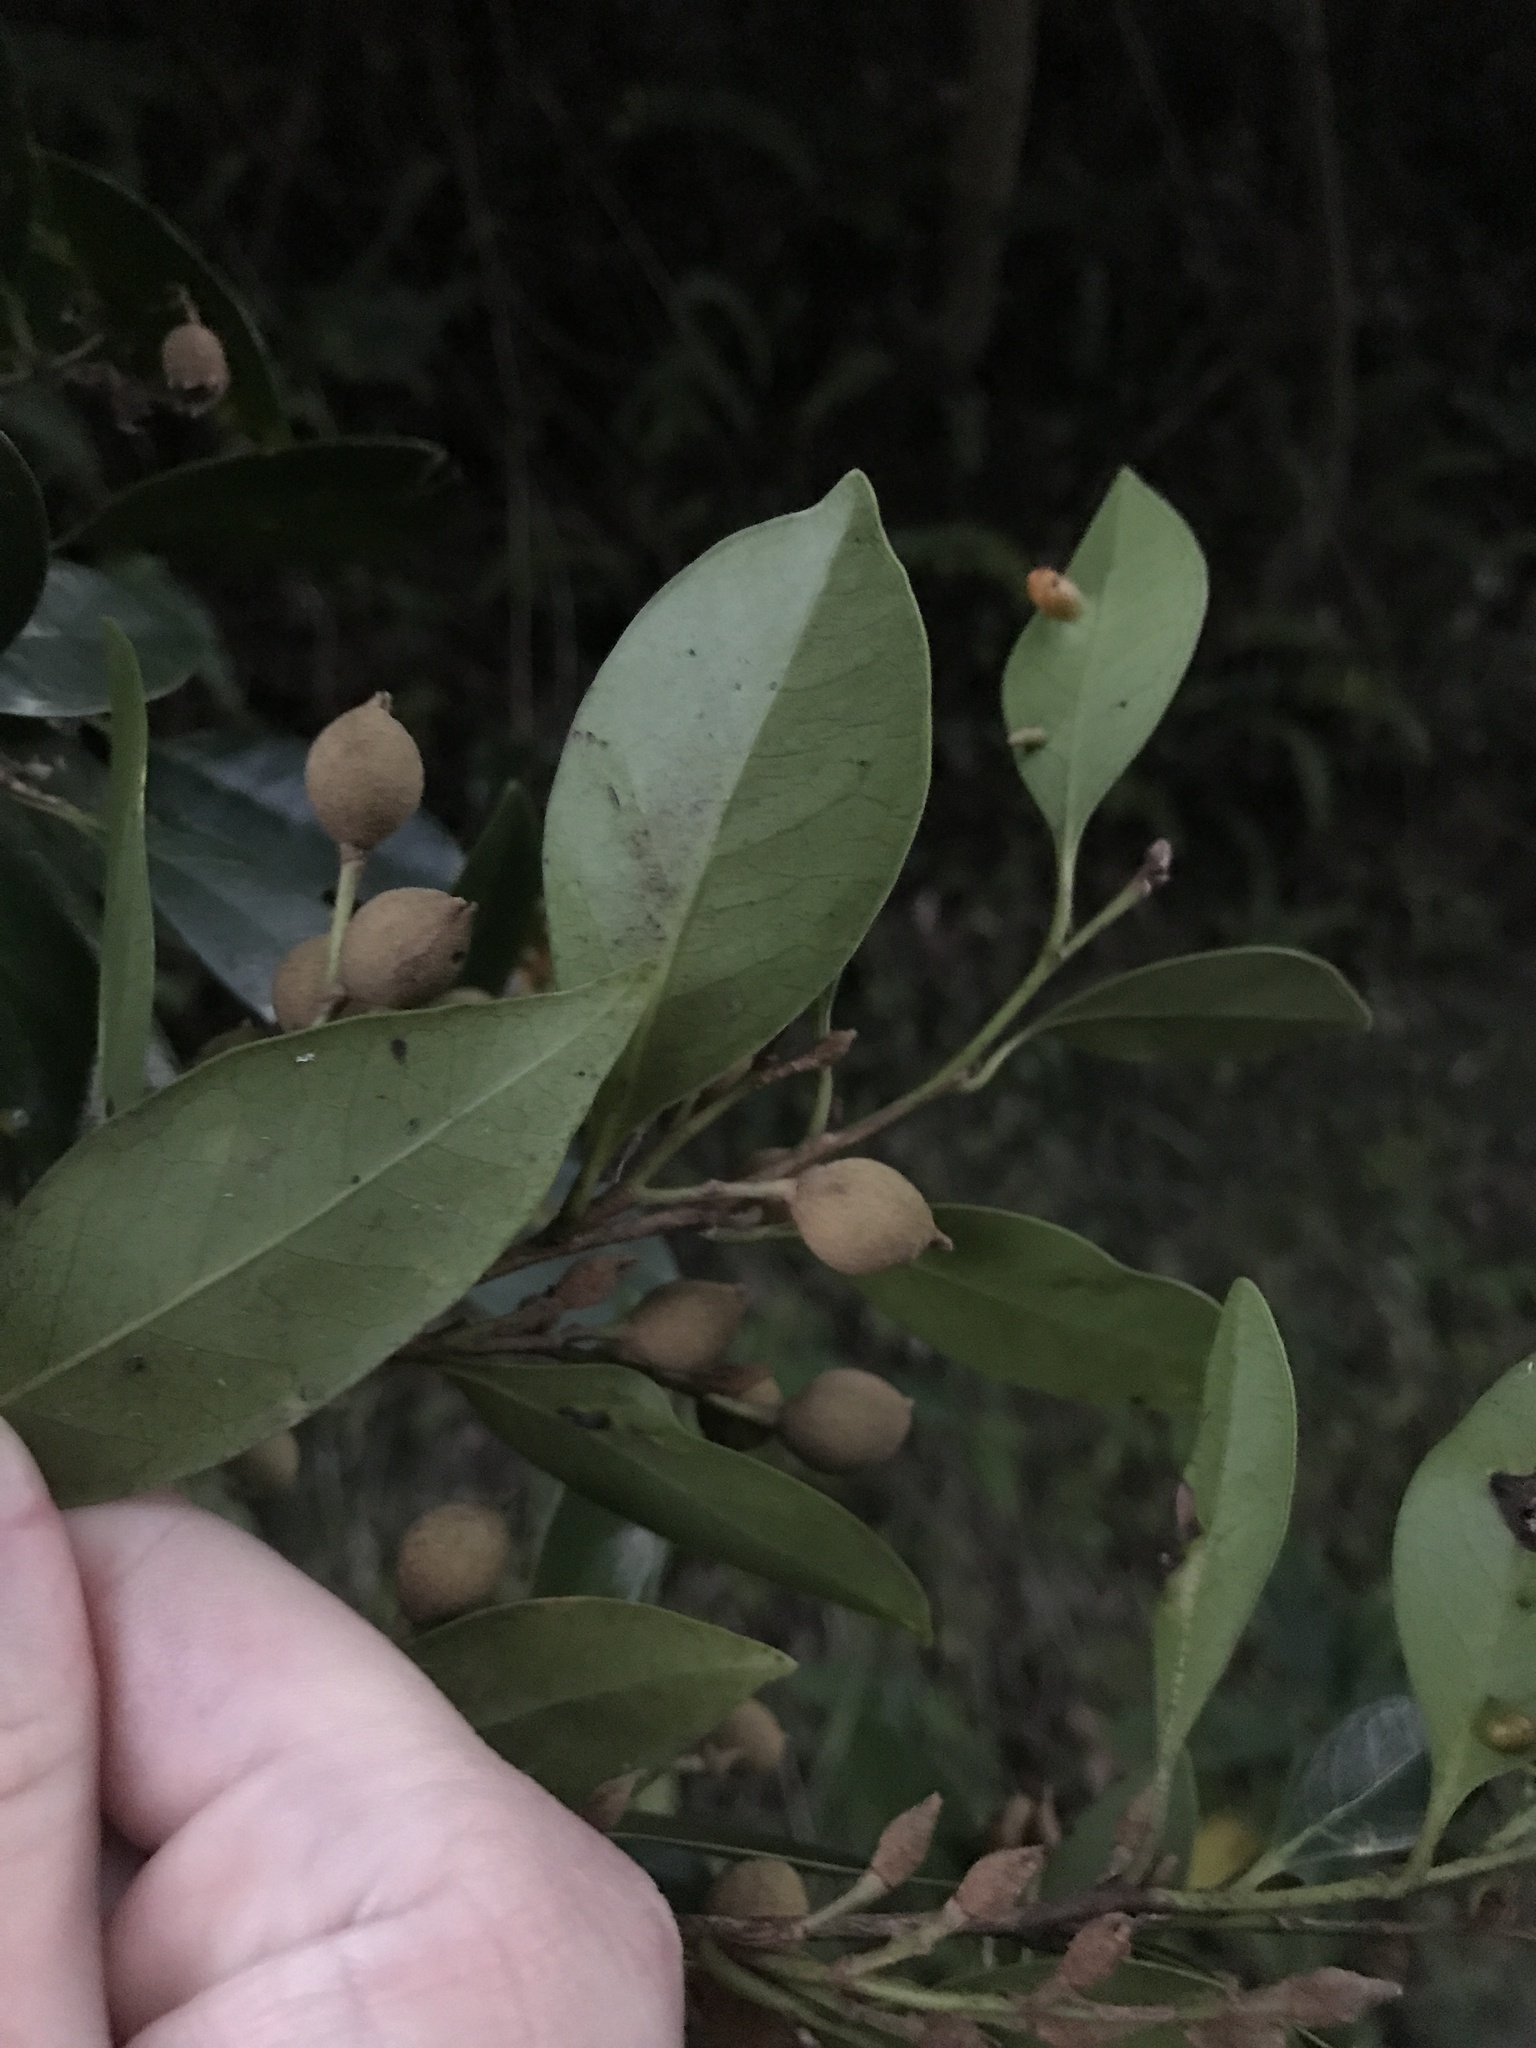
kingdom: Plantae
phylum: Tracheophyta
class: Magnoliopsida
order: Saxifragales
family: Hamamelidaceae
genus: Distylium
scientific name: Distylium racemosum
